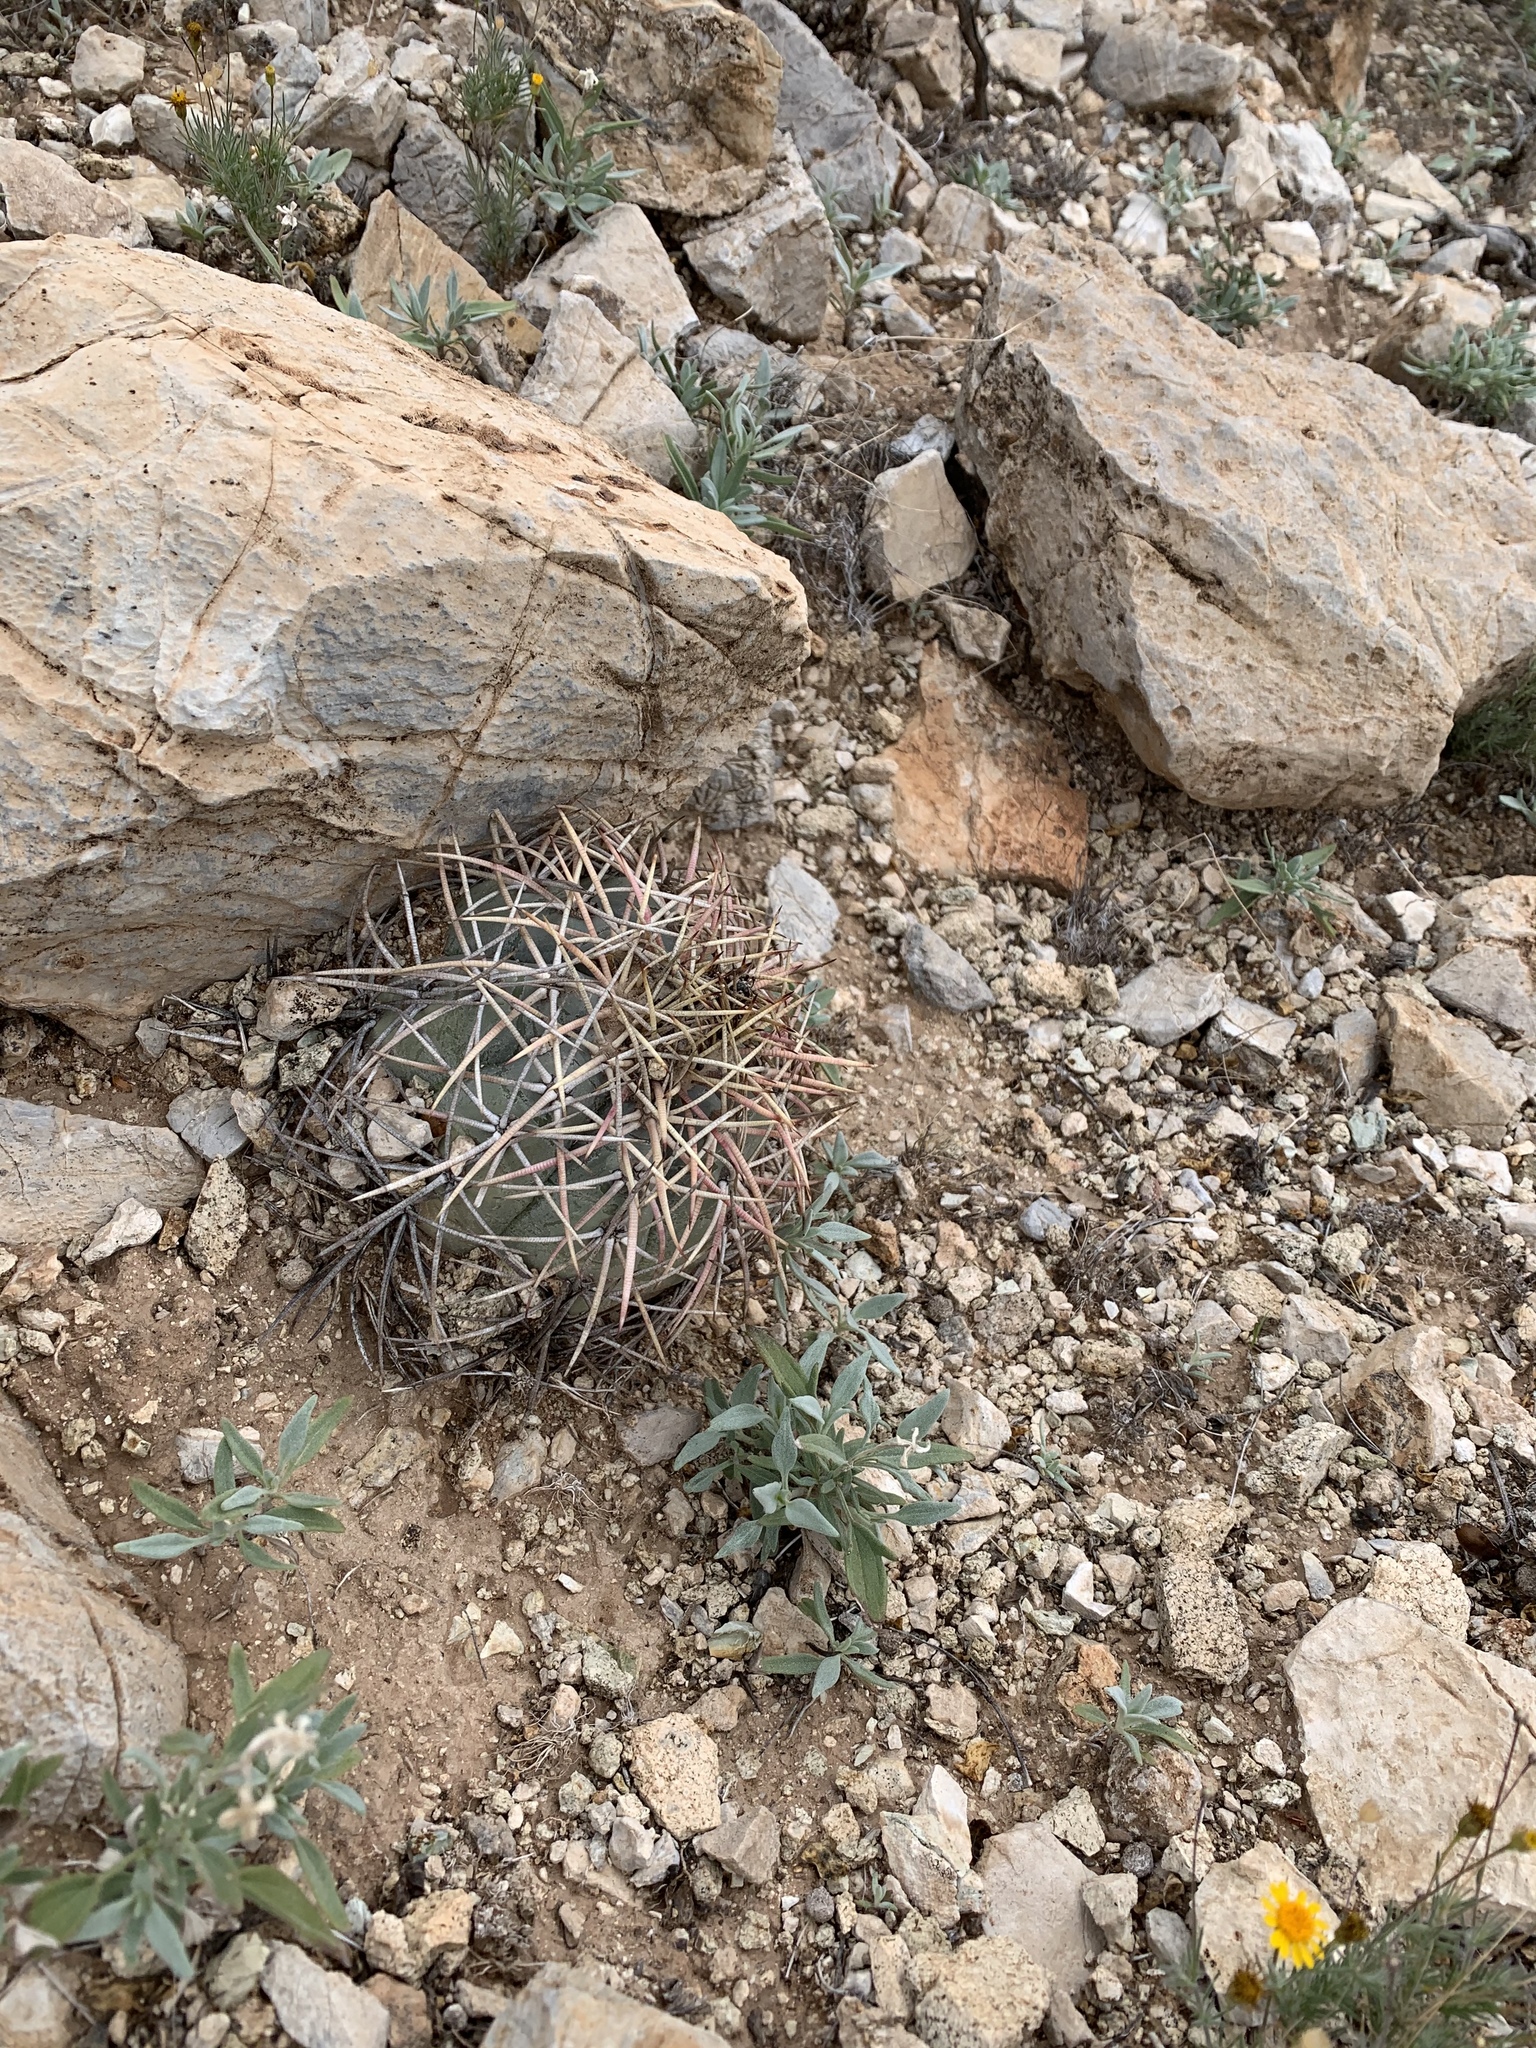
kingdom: Plantae
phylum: Tracheophyta
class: Magnoliopsida
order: Caryophyllales
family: Cactaceae
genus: Echinocactus
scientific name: Echinocactus horizonthalonius
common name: Devilshead
